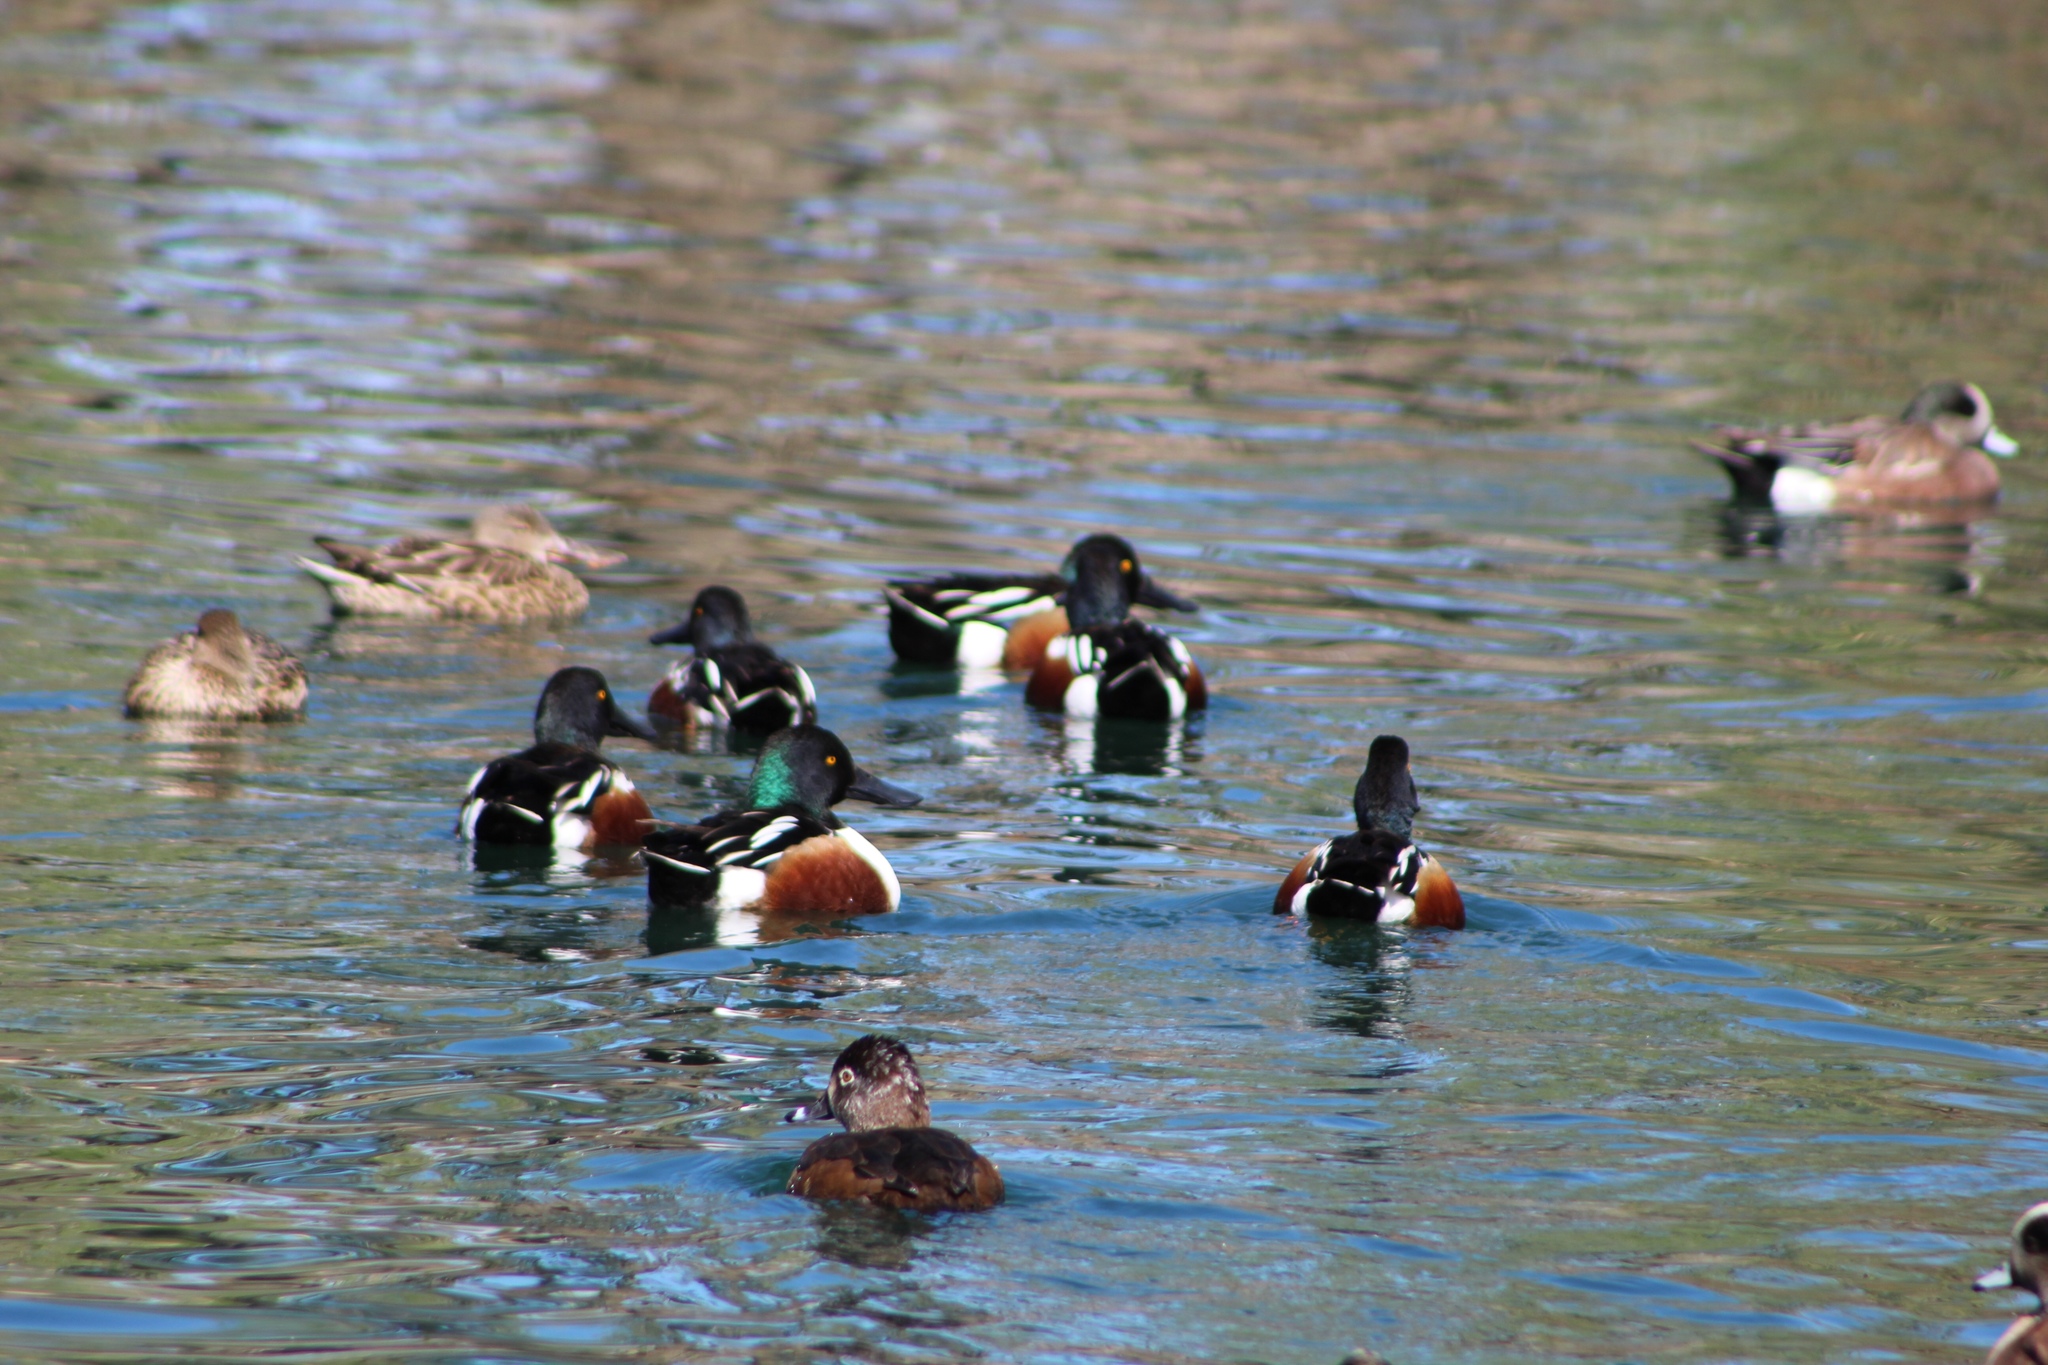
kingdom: Animalia
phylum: Chordata
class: Aves
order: Anseriformes
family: Anatidae
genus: Spatula
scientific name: Spatula clypeata
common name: Northern shoveler
